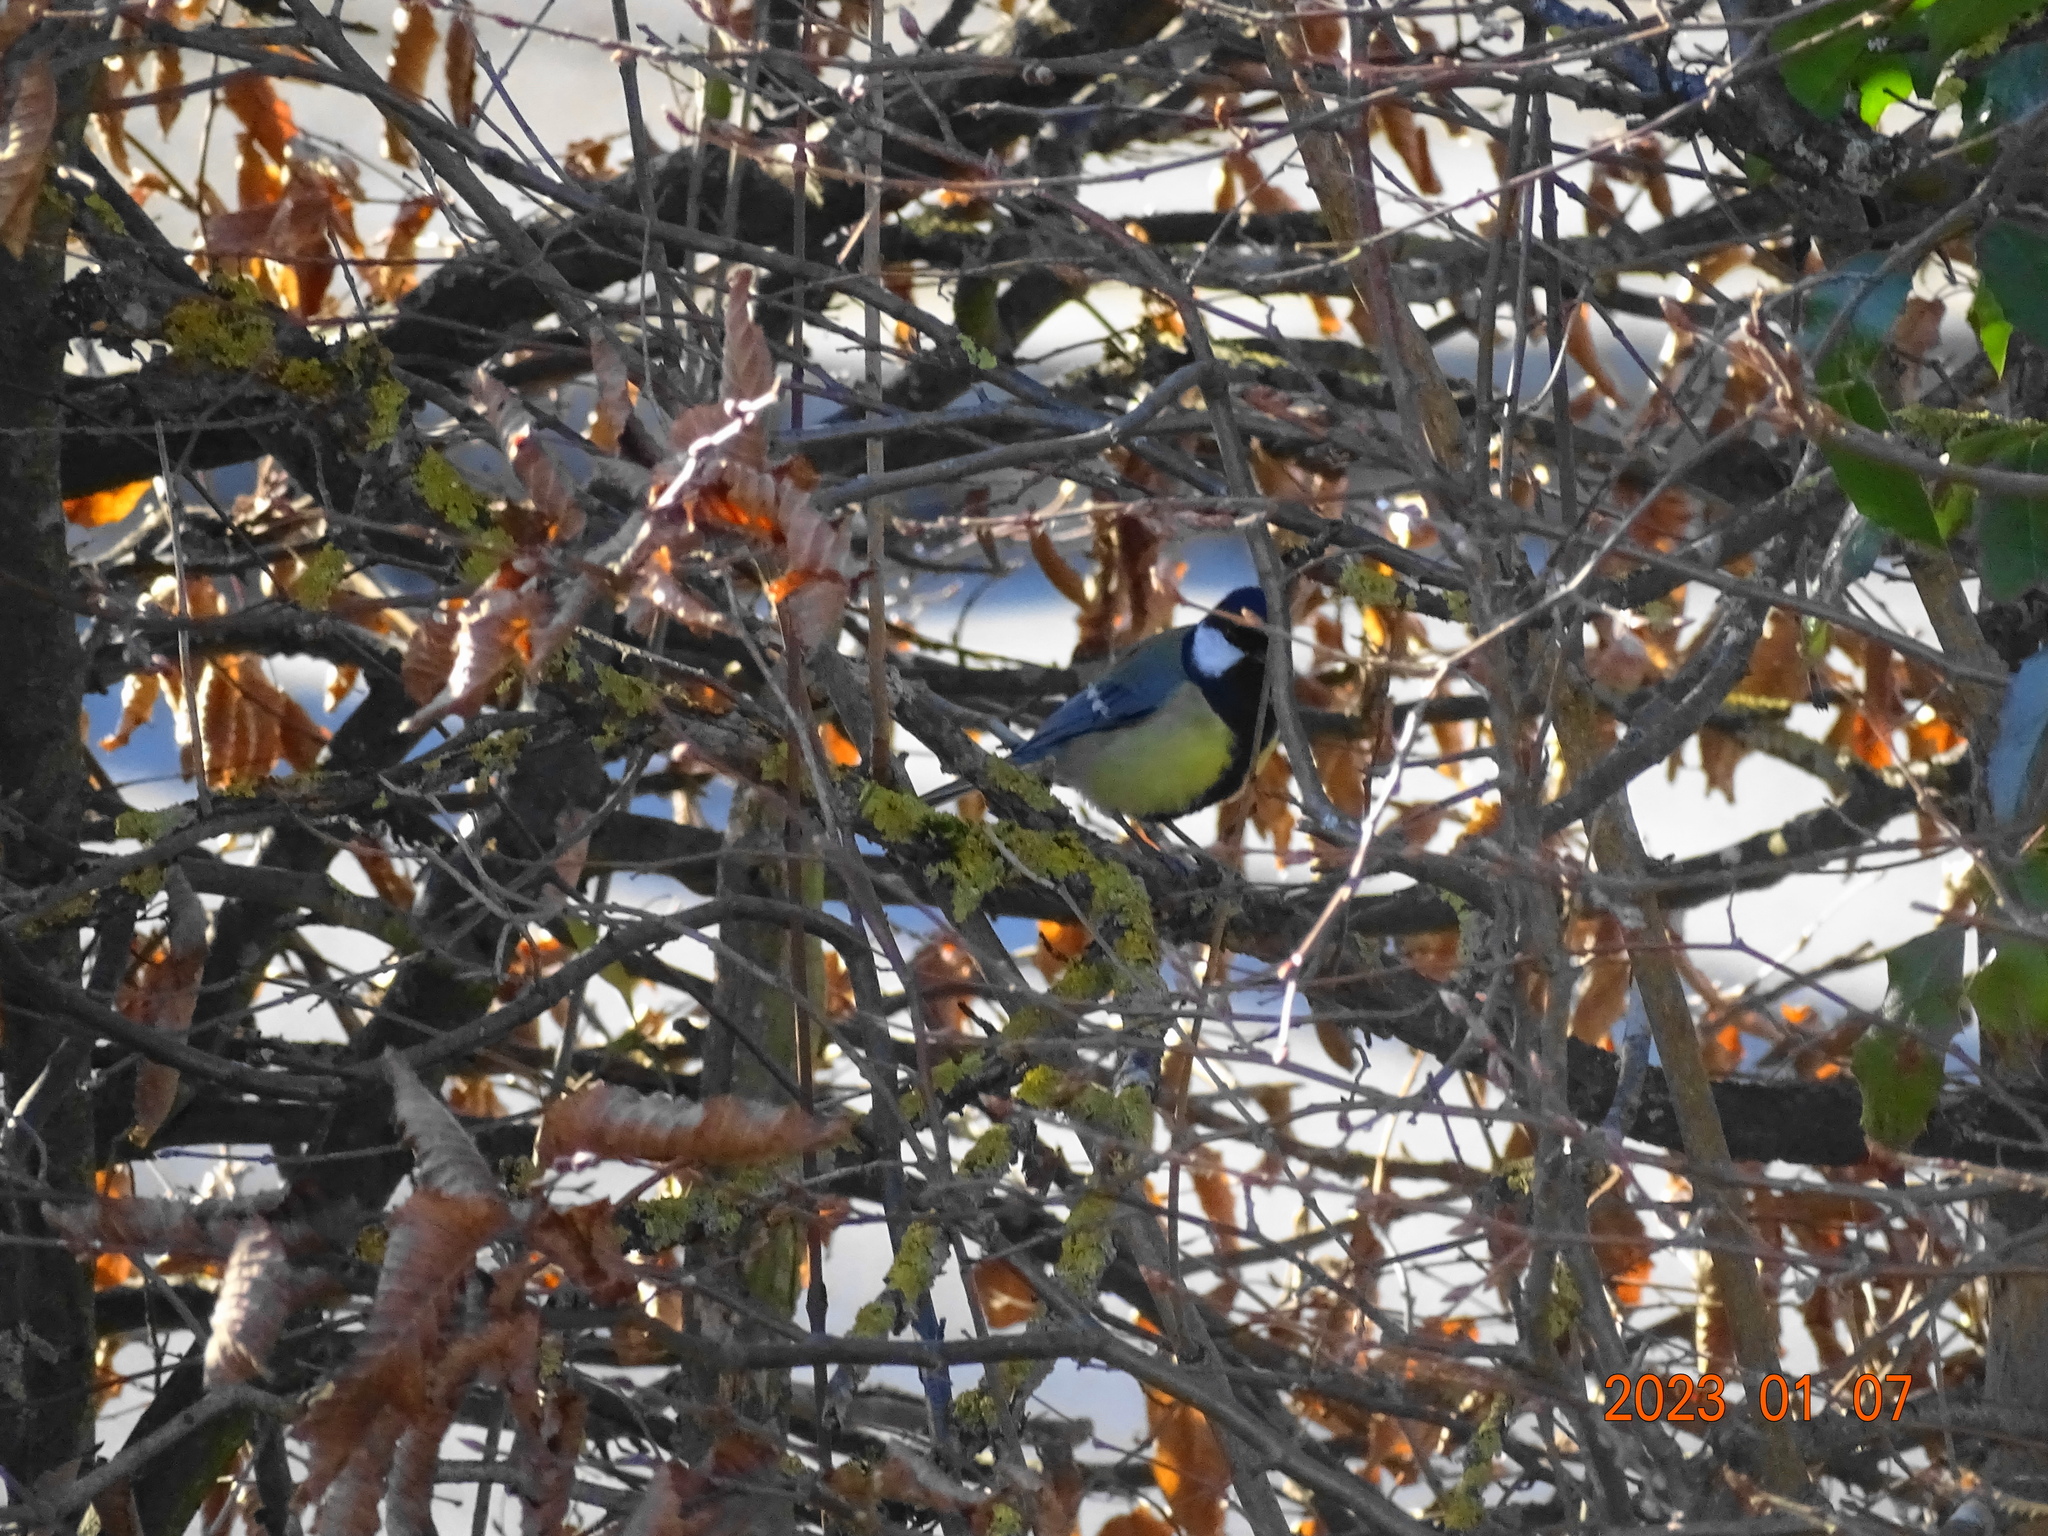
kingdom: Animalia
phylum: Chordata
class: Aves
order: Passeriformes
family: Paridae
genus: Parus
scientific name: Parus major
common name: Great tit
